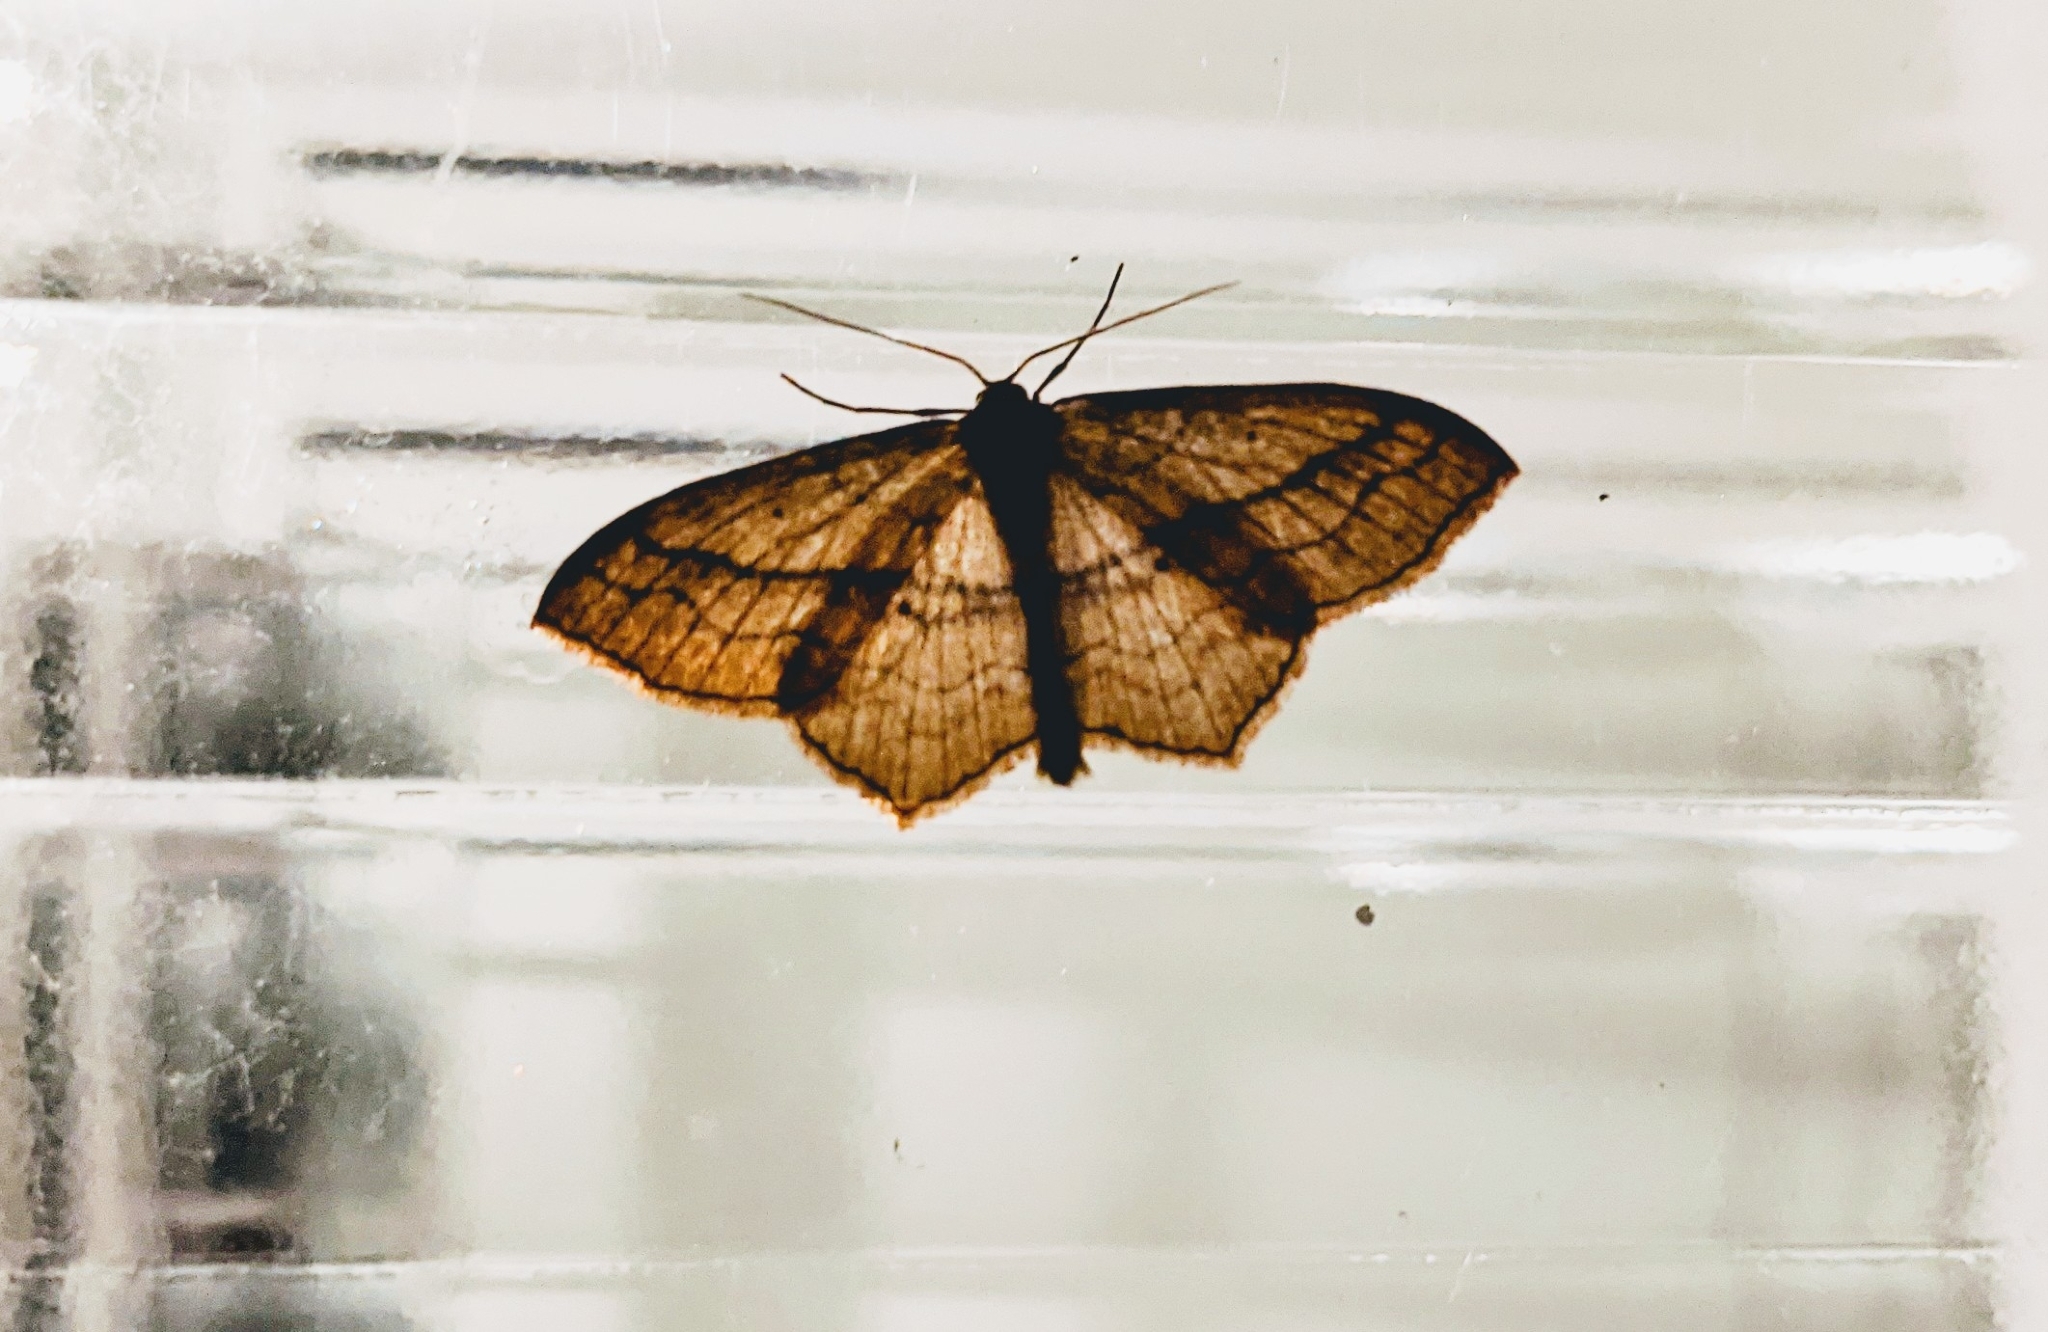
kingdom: Animalia
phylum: Arthropoda
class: Insecta
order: Lepidoptera
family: Geometridae
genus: Scopula
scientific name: Scopula imitaria
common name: Small blood-vein
